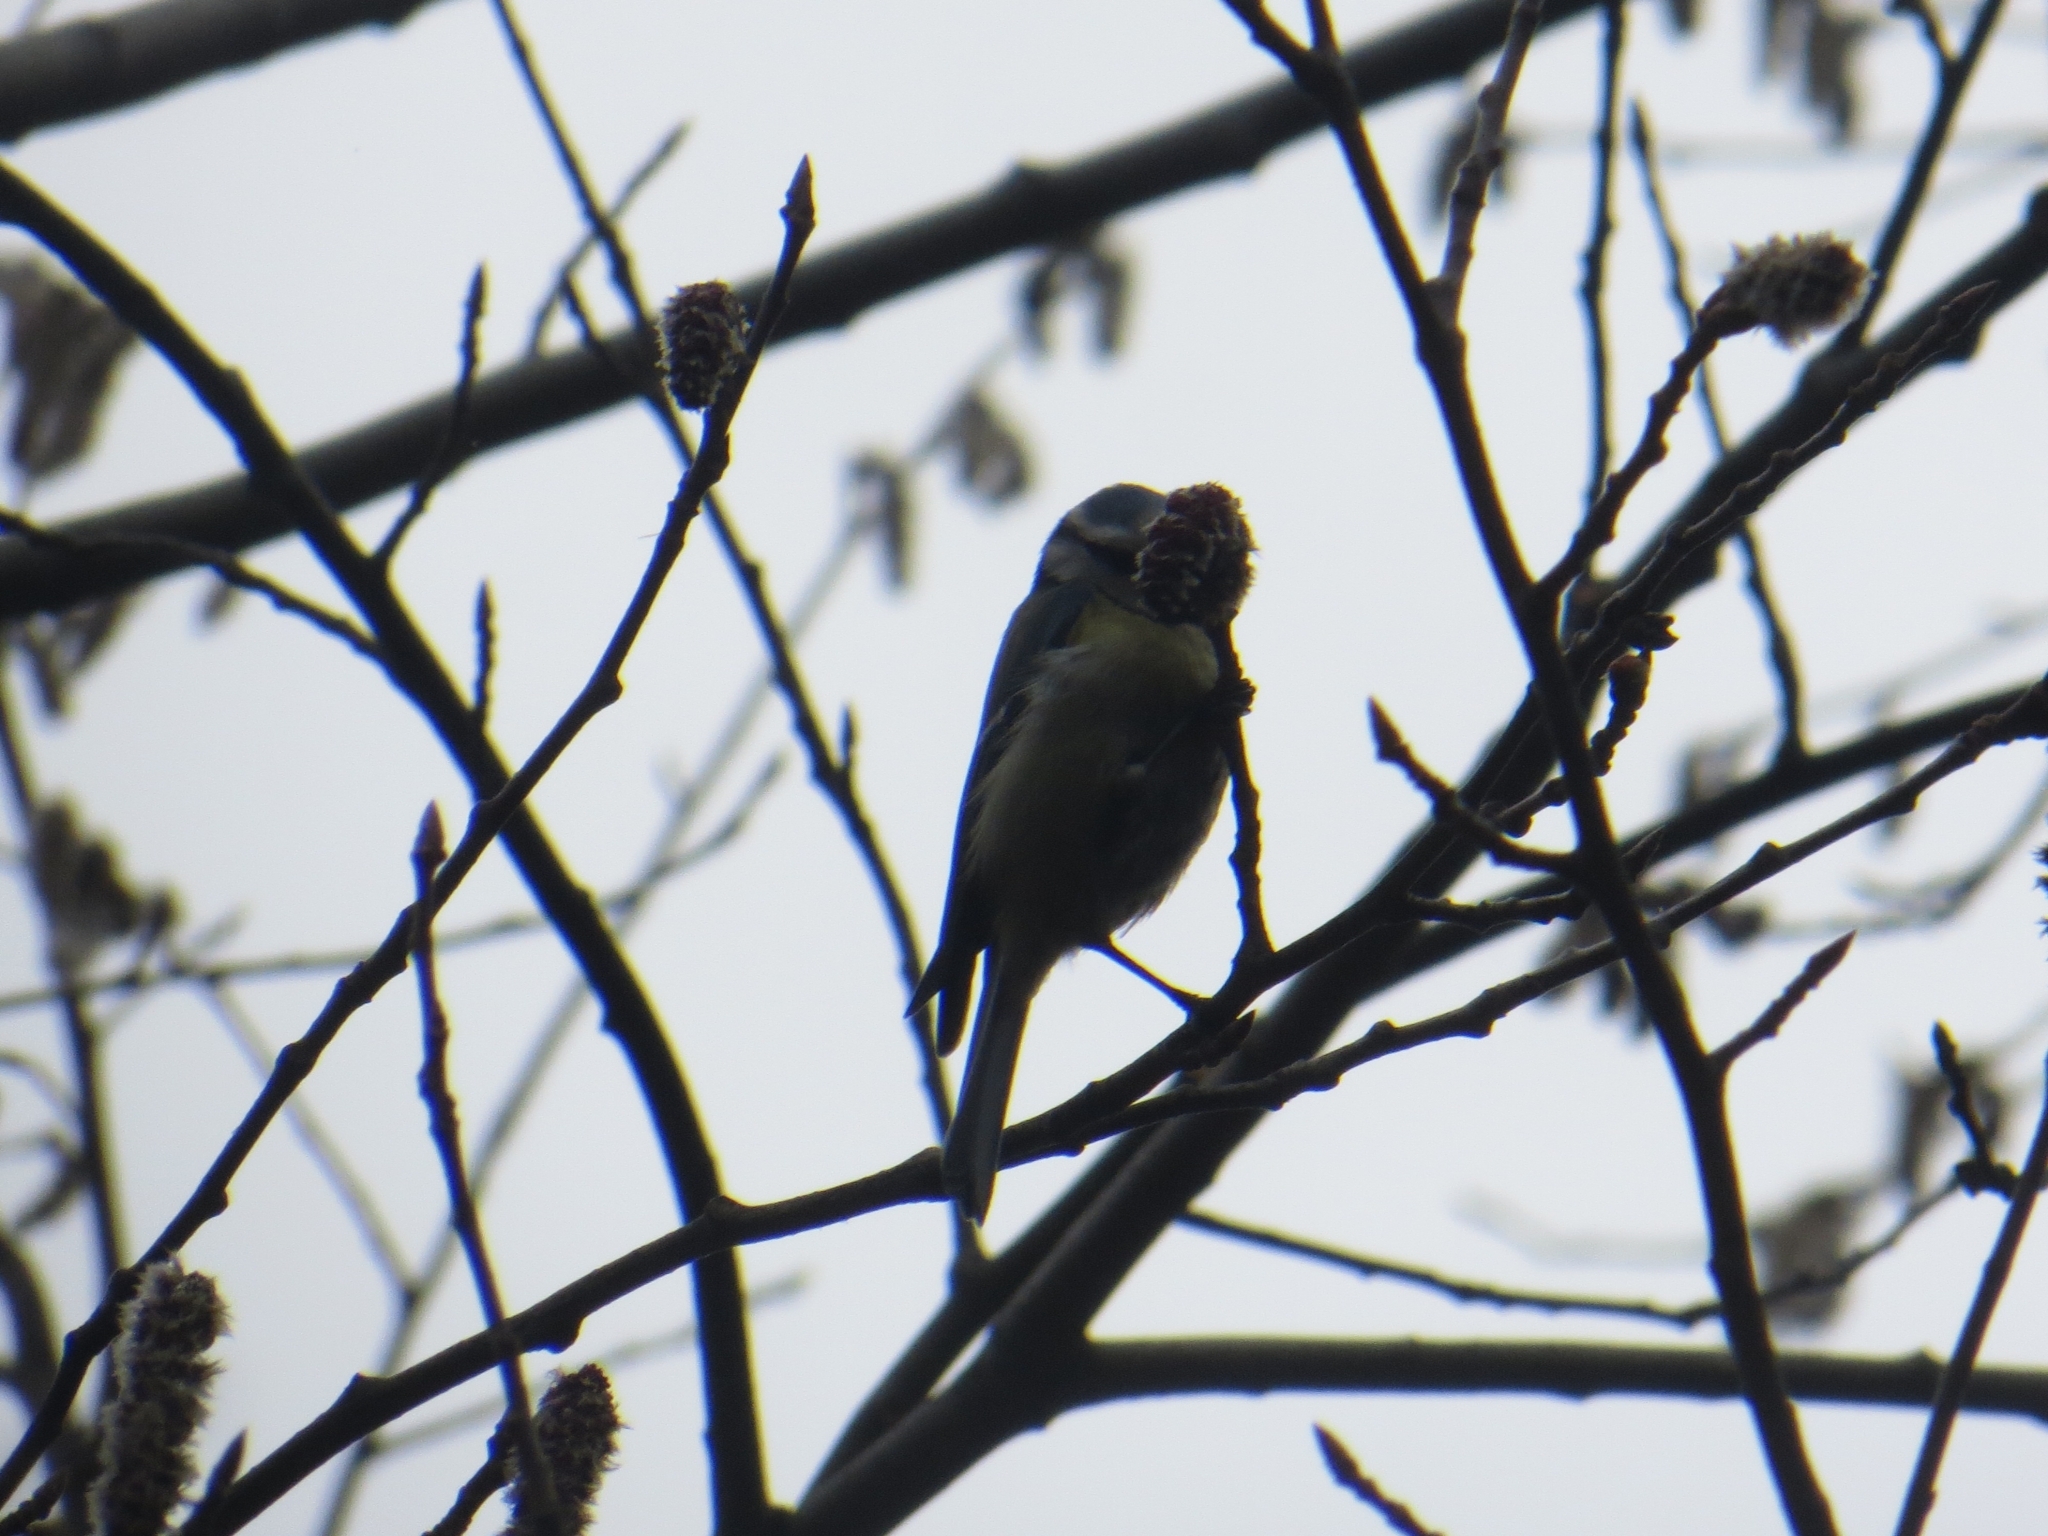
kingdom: Animalia
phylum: Chordata
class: Aves
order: Passeriformes
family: Paridae
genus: Cyanistes
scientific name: Cyanistes caeruleus
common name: Eurasian blue tit
